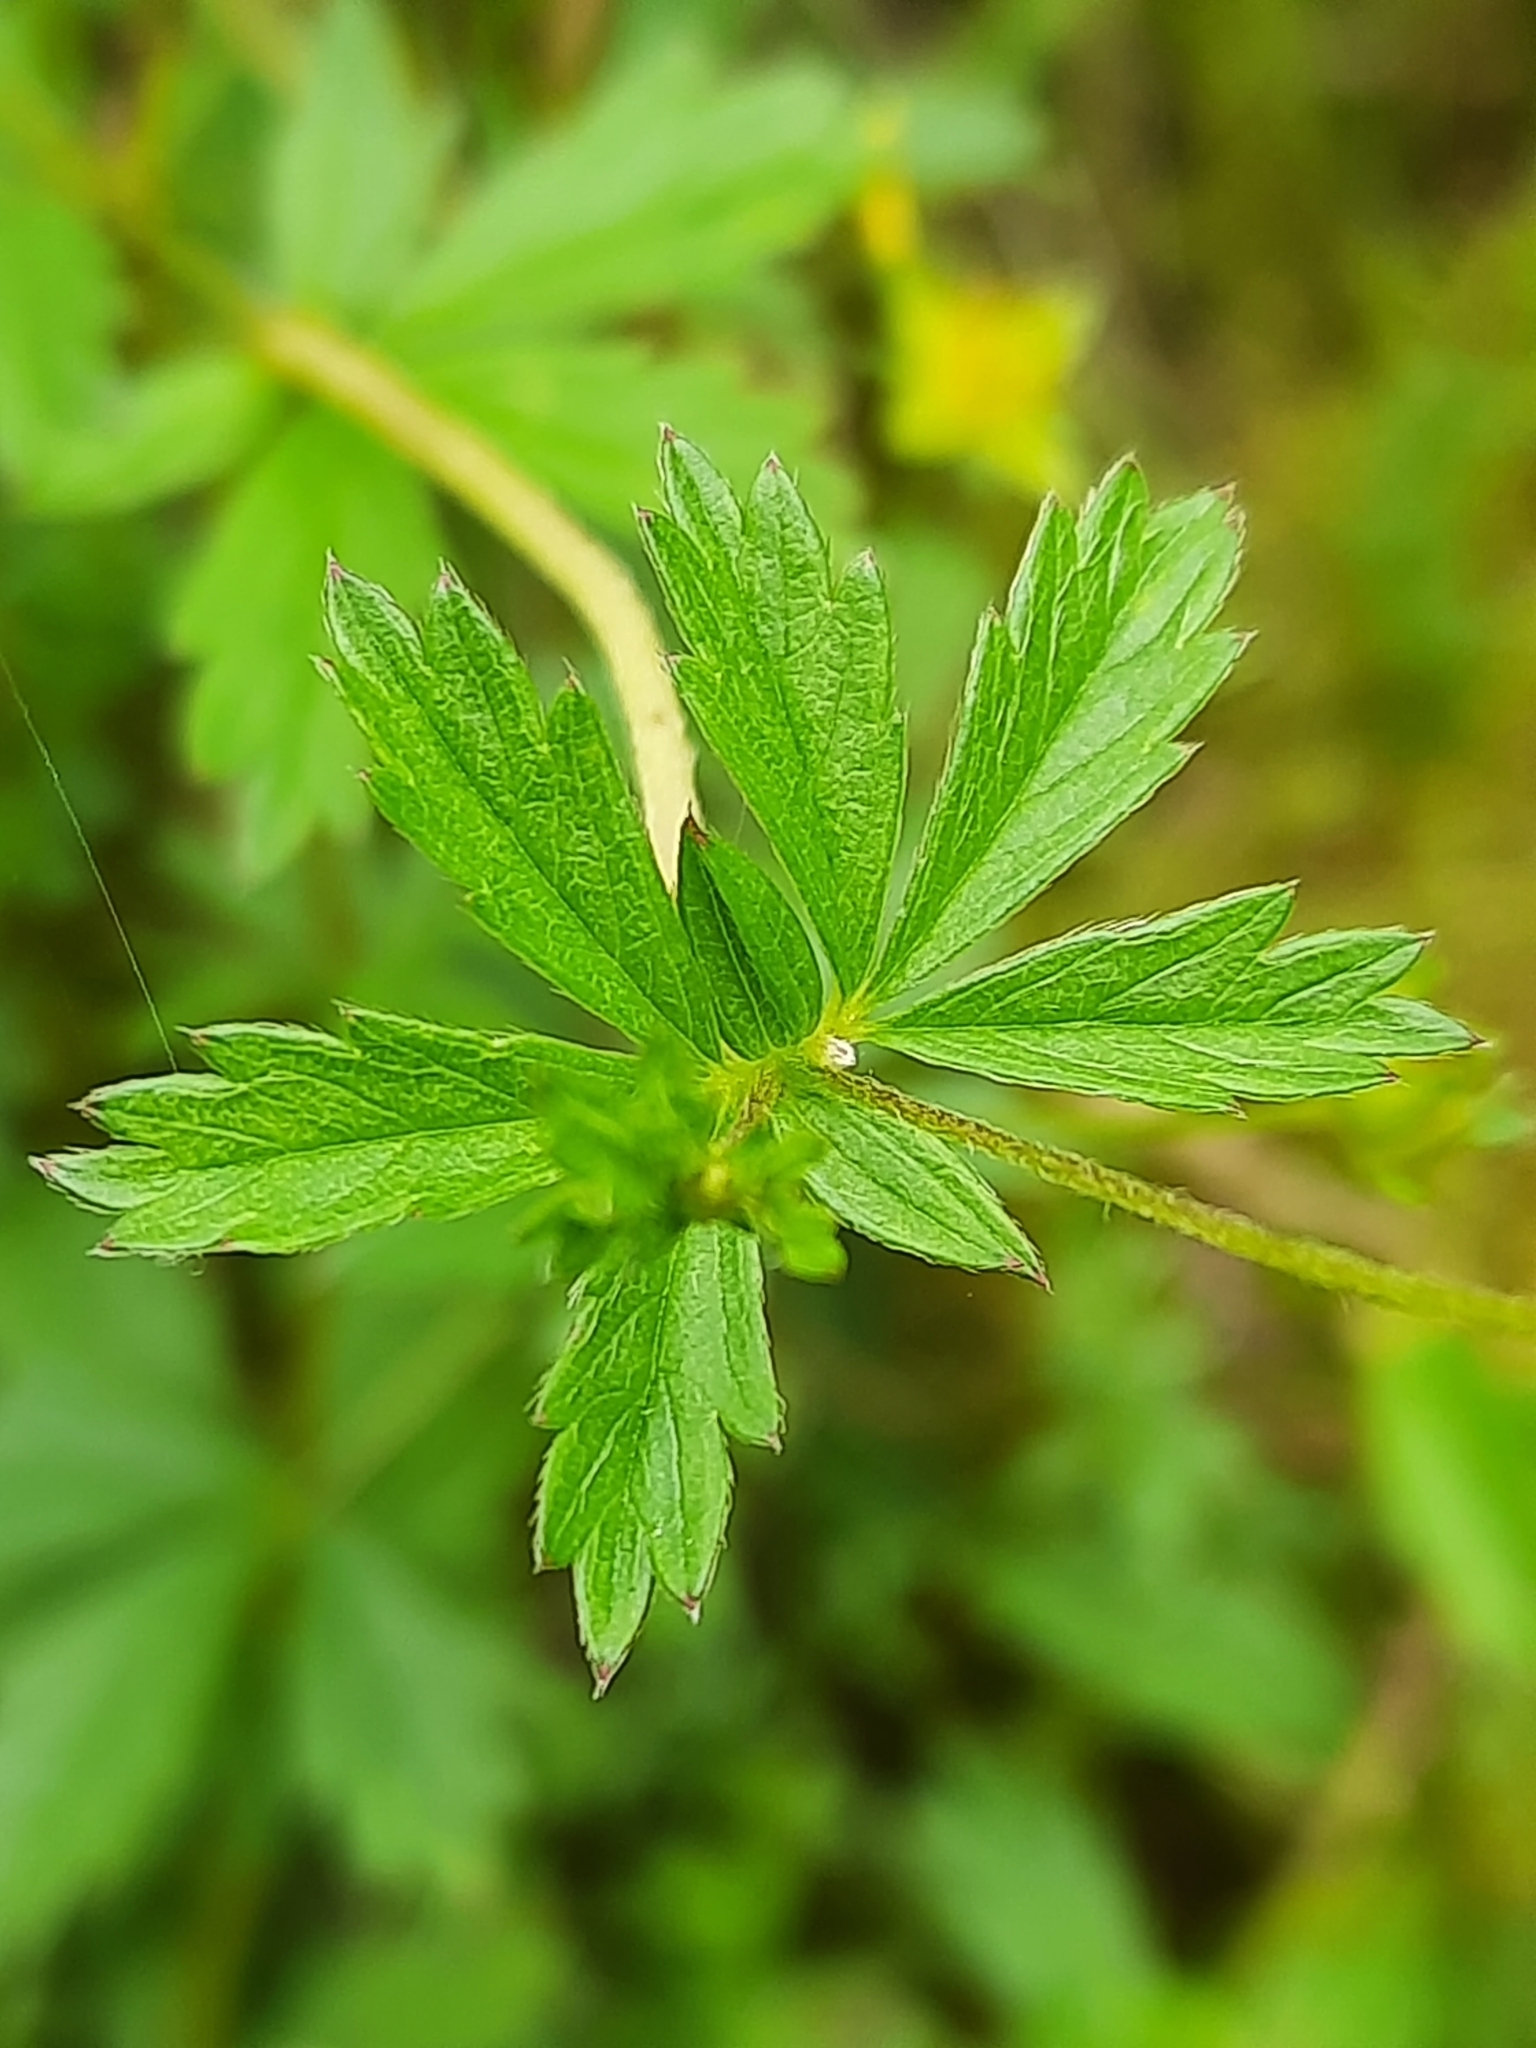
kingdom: Plantae
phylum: Tracheophyta
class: Magnoliopsida
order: Rosales
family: Rosaceae
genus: Potentilla
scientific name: Potentilla erecta
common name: Tormentil
